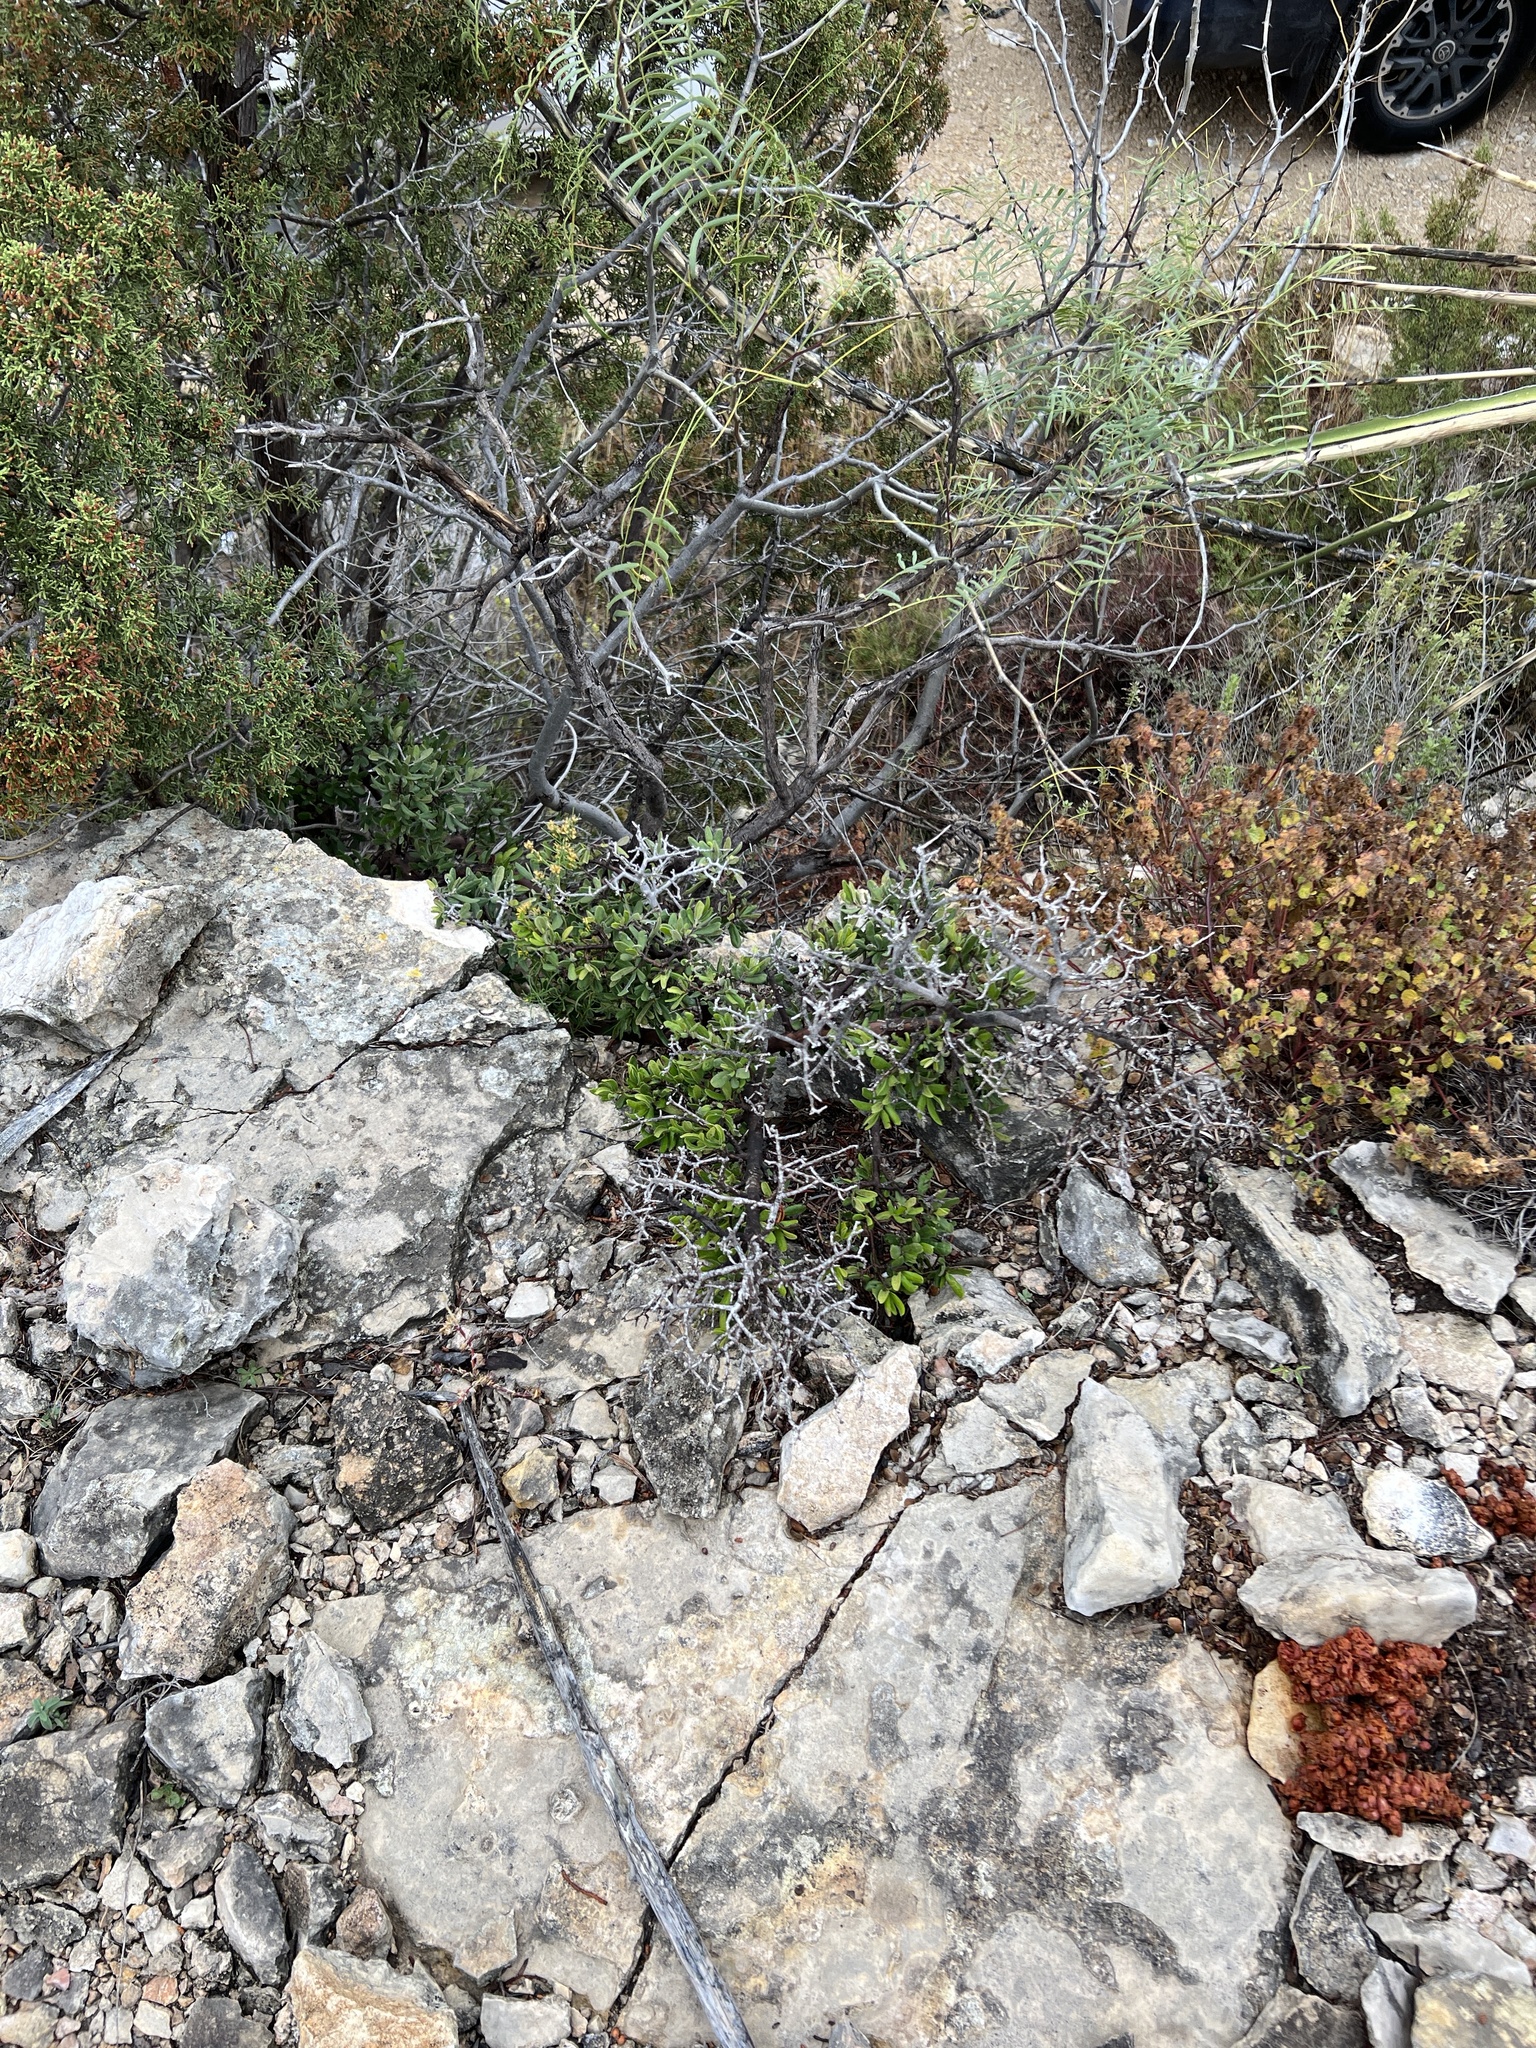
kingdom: Plantae
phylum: Tracheophyta
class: Magnoliopsida
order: Ericales
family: Ebenaceae
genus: Diospyros
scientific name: Diospyros texana
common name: Texas persimmon
